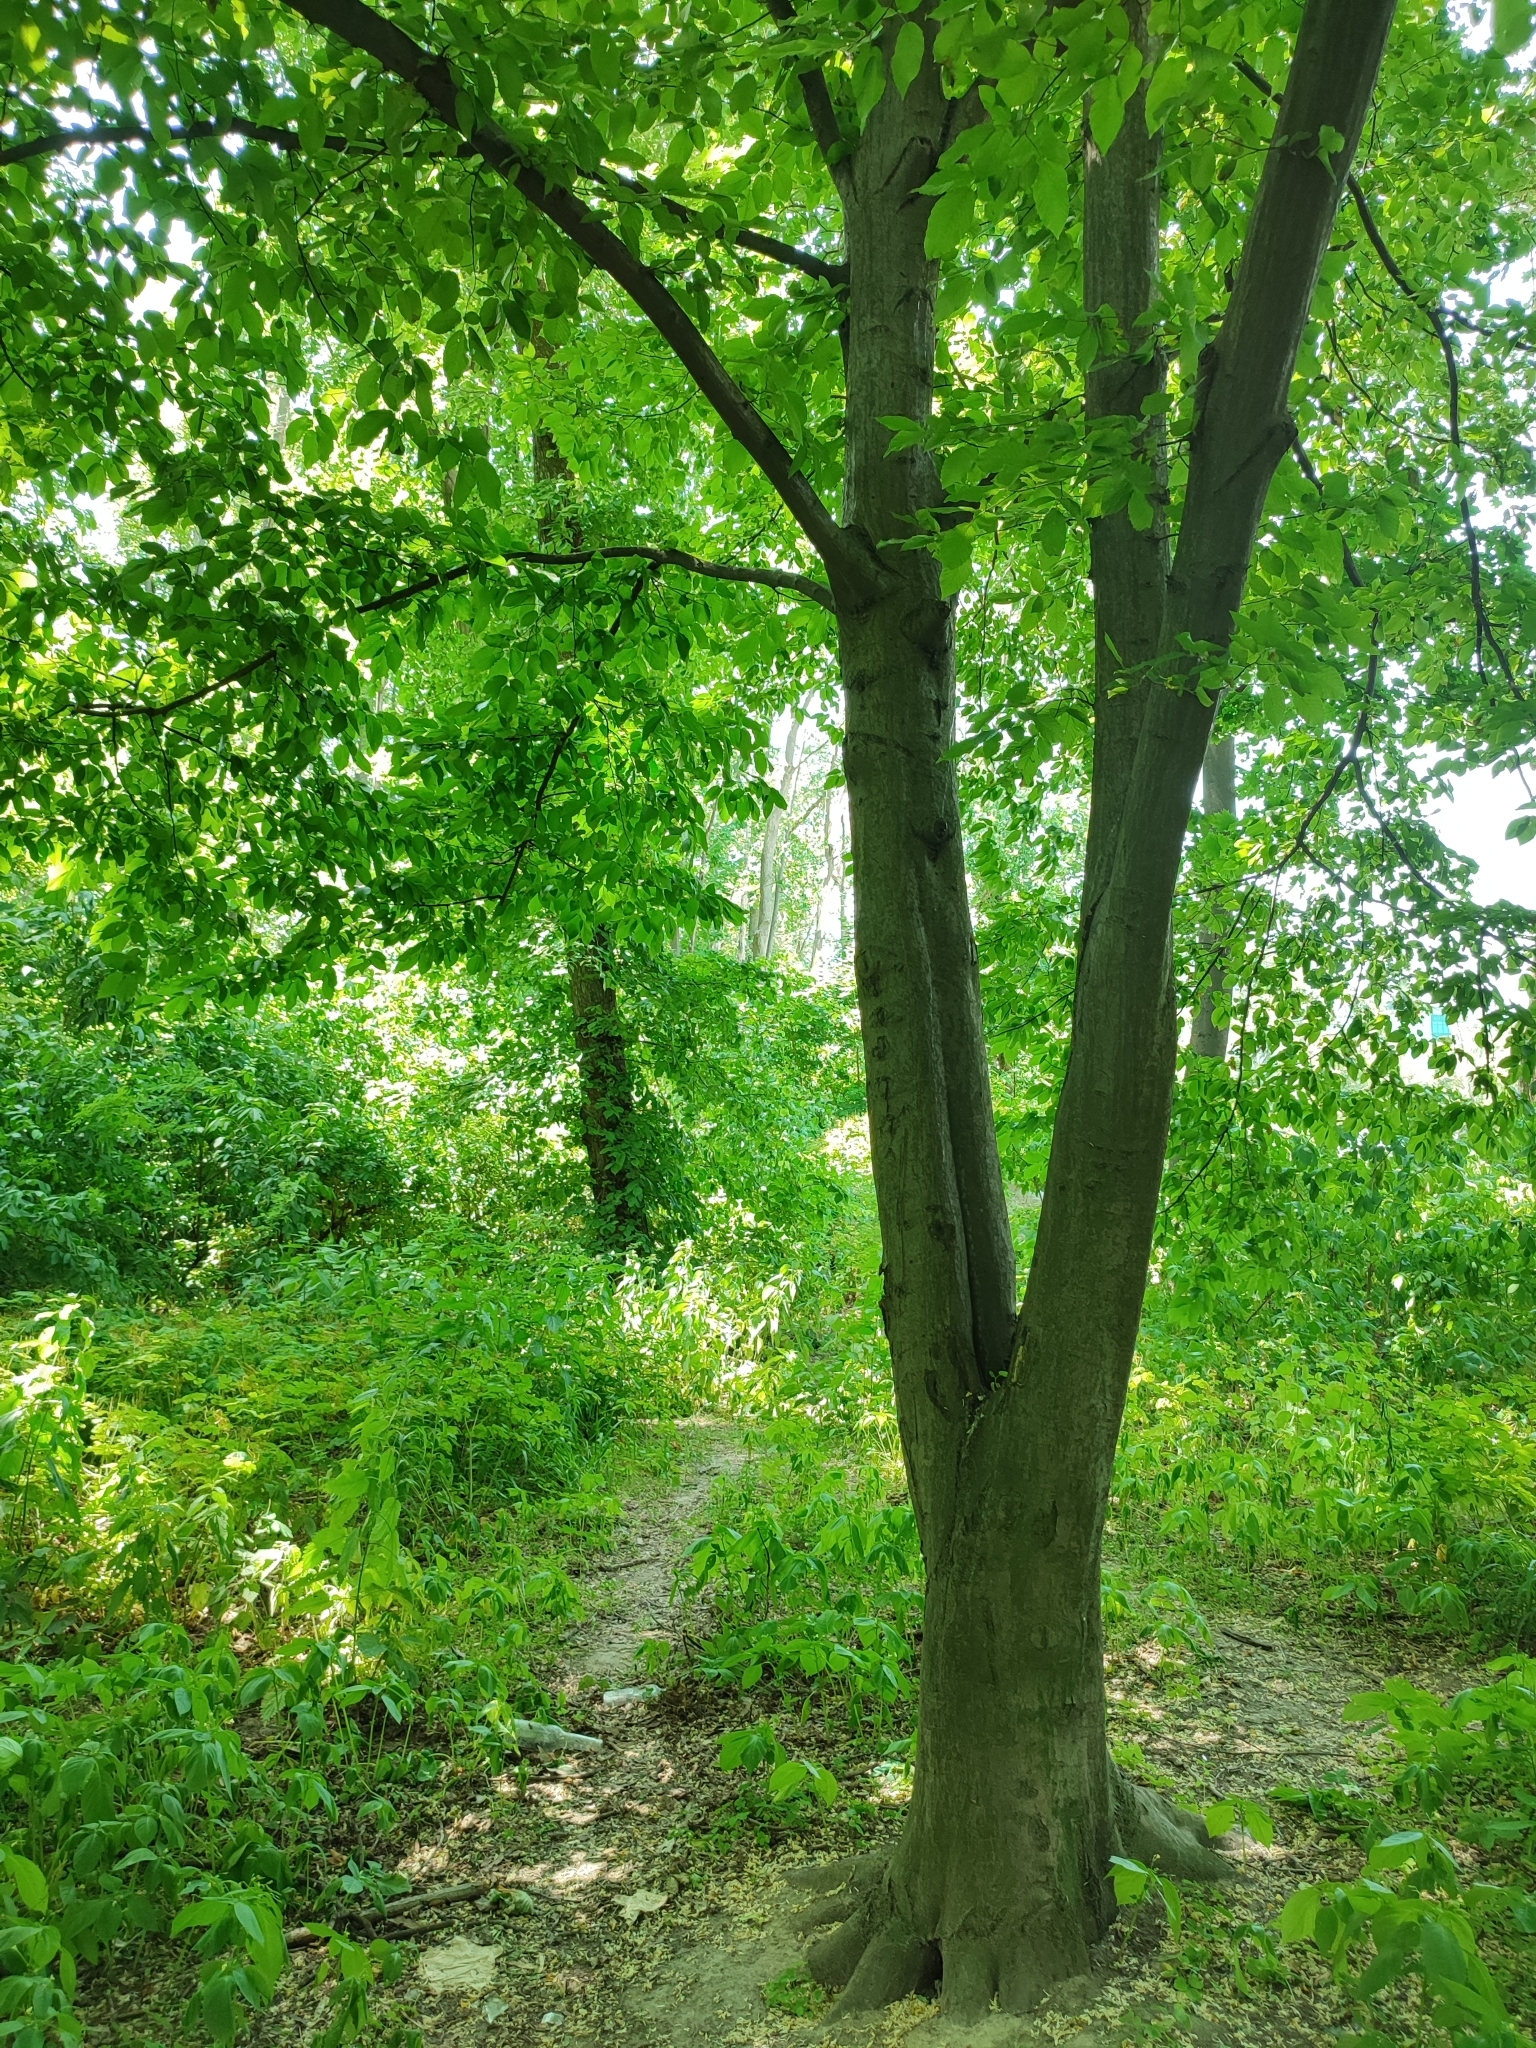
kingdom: Plantae
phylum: Tracheophyta
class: Magnoliopsida
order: Fagales
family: Betulaceae
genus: Carpinus
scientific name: Carpinus betulus
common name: Hornbeam
